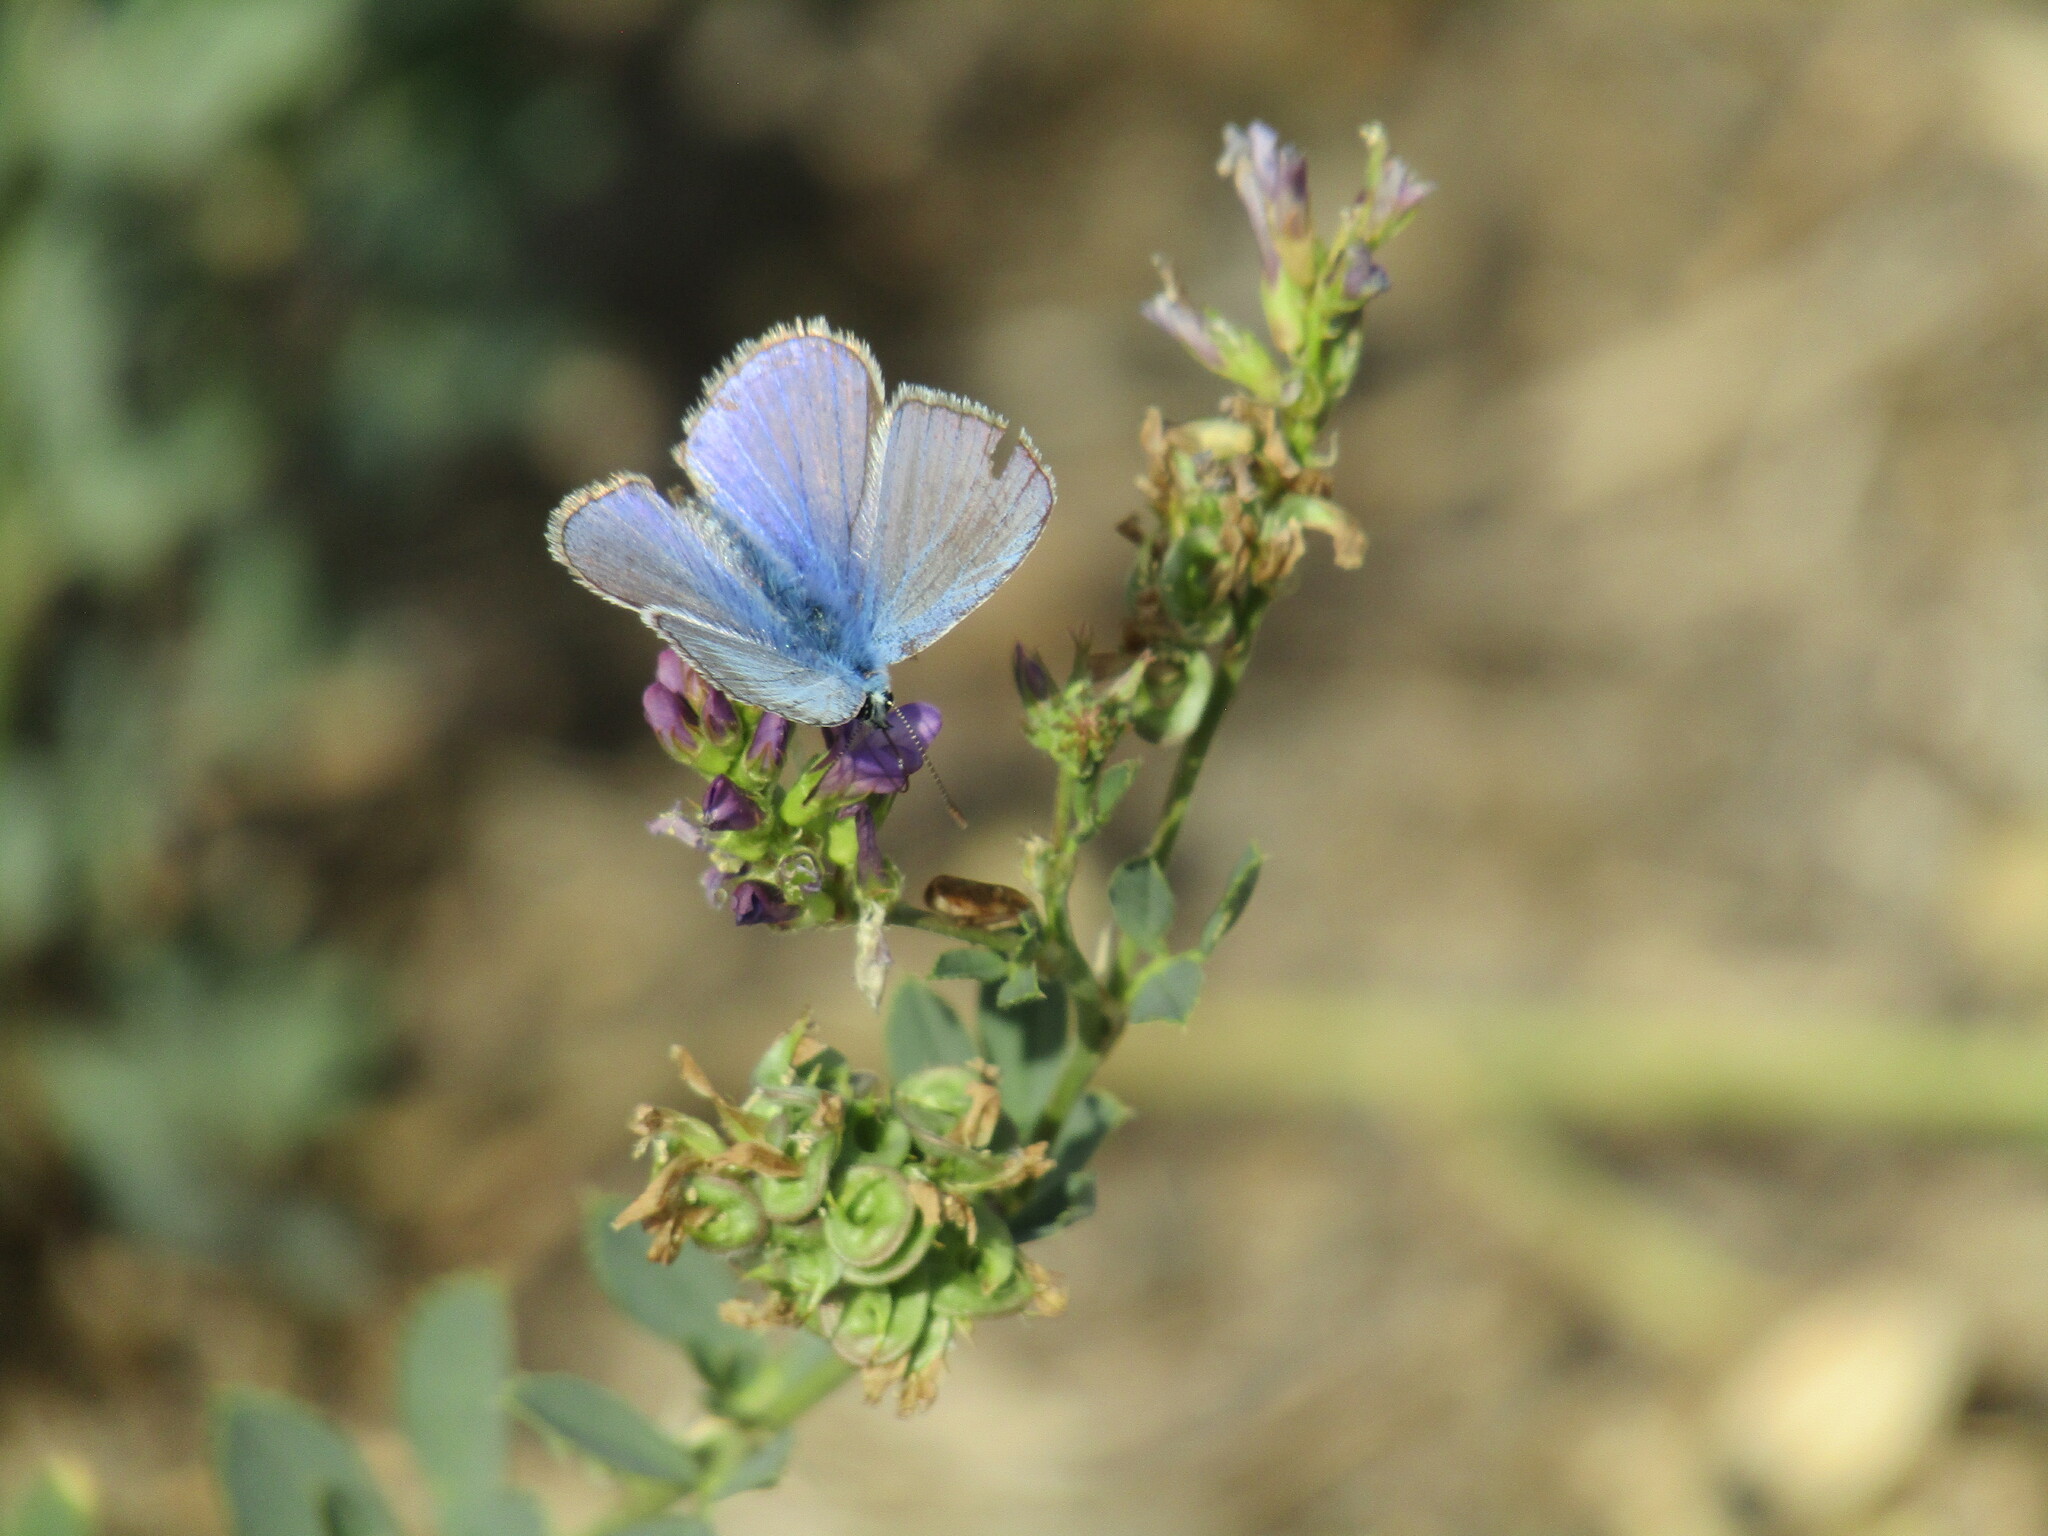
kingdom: Animalia
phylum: Arthropoda
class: Insecta
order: Lepidoptera
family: Lycaenidae
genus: Polyommatus
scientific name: Polyommatus icarus
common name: Common blue
